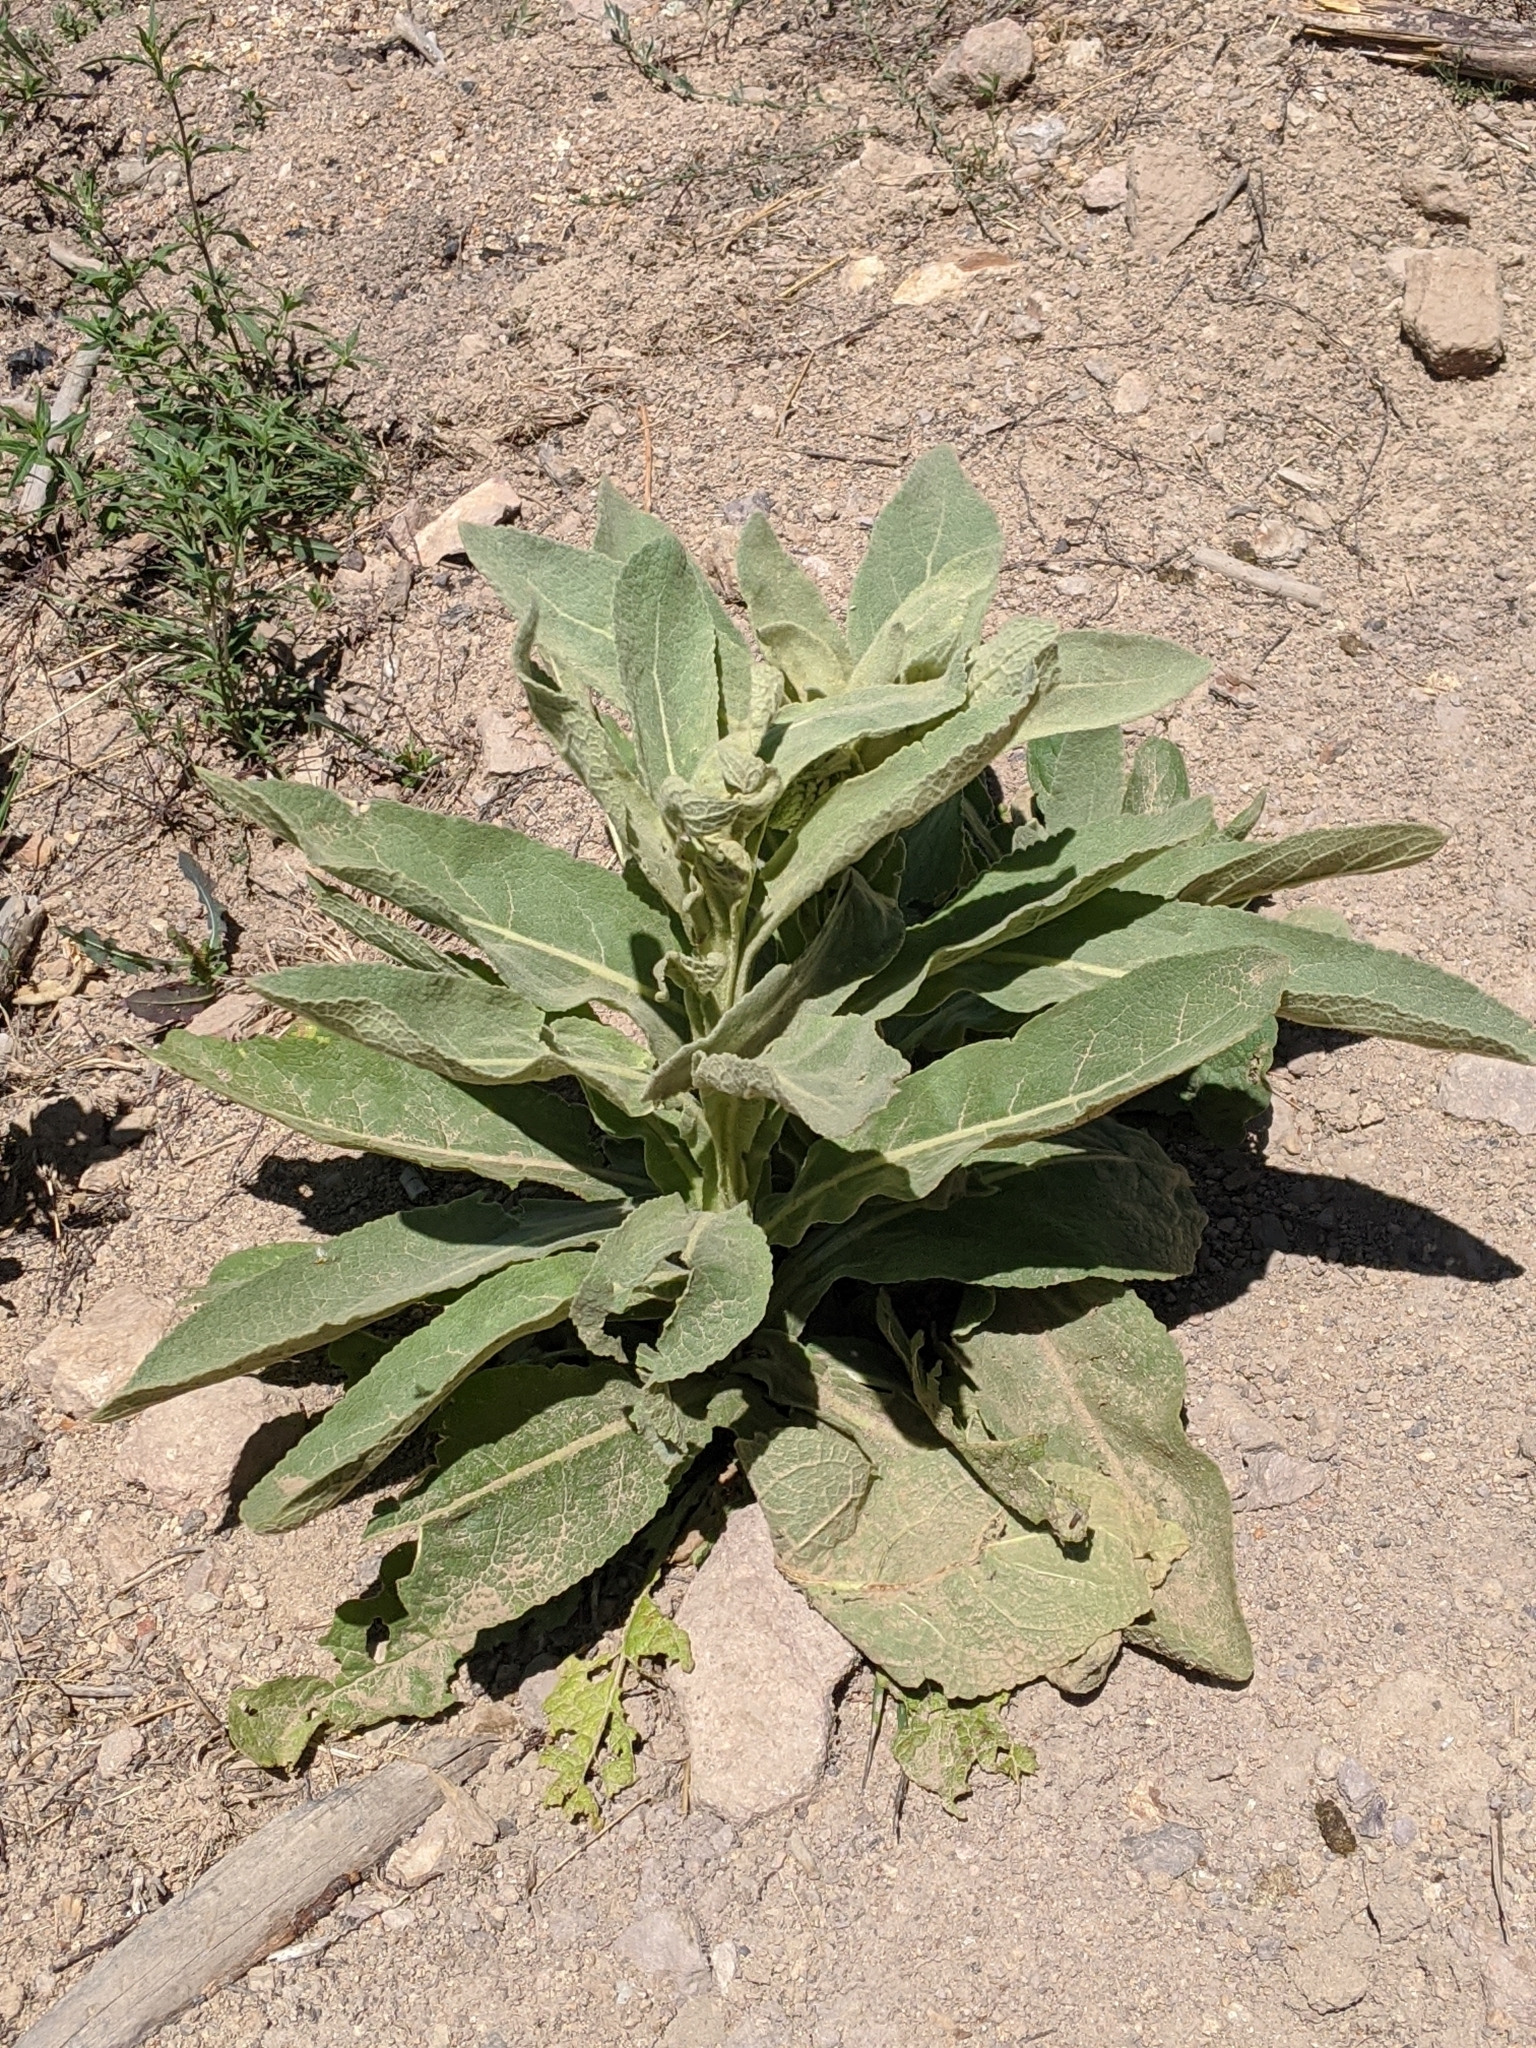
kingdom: Plantae
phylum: Tracheophyta
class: Magnoliopsida
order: Lamiales
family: Scrophulariaceae
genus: Verbascum
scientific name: Verbascum thapsus
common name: Common mullein
